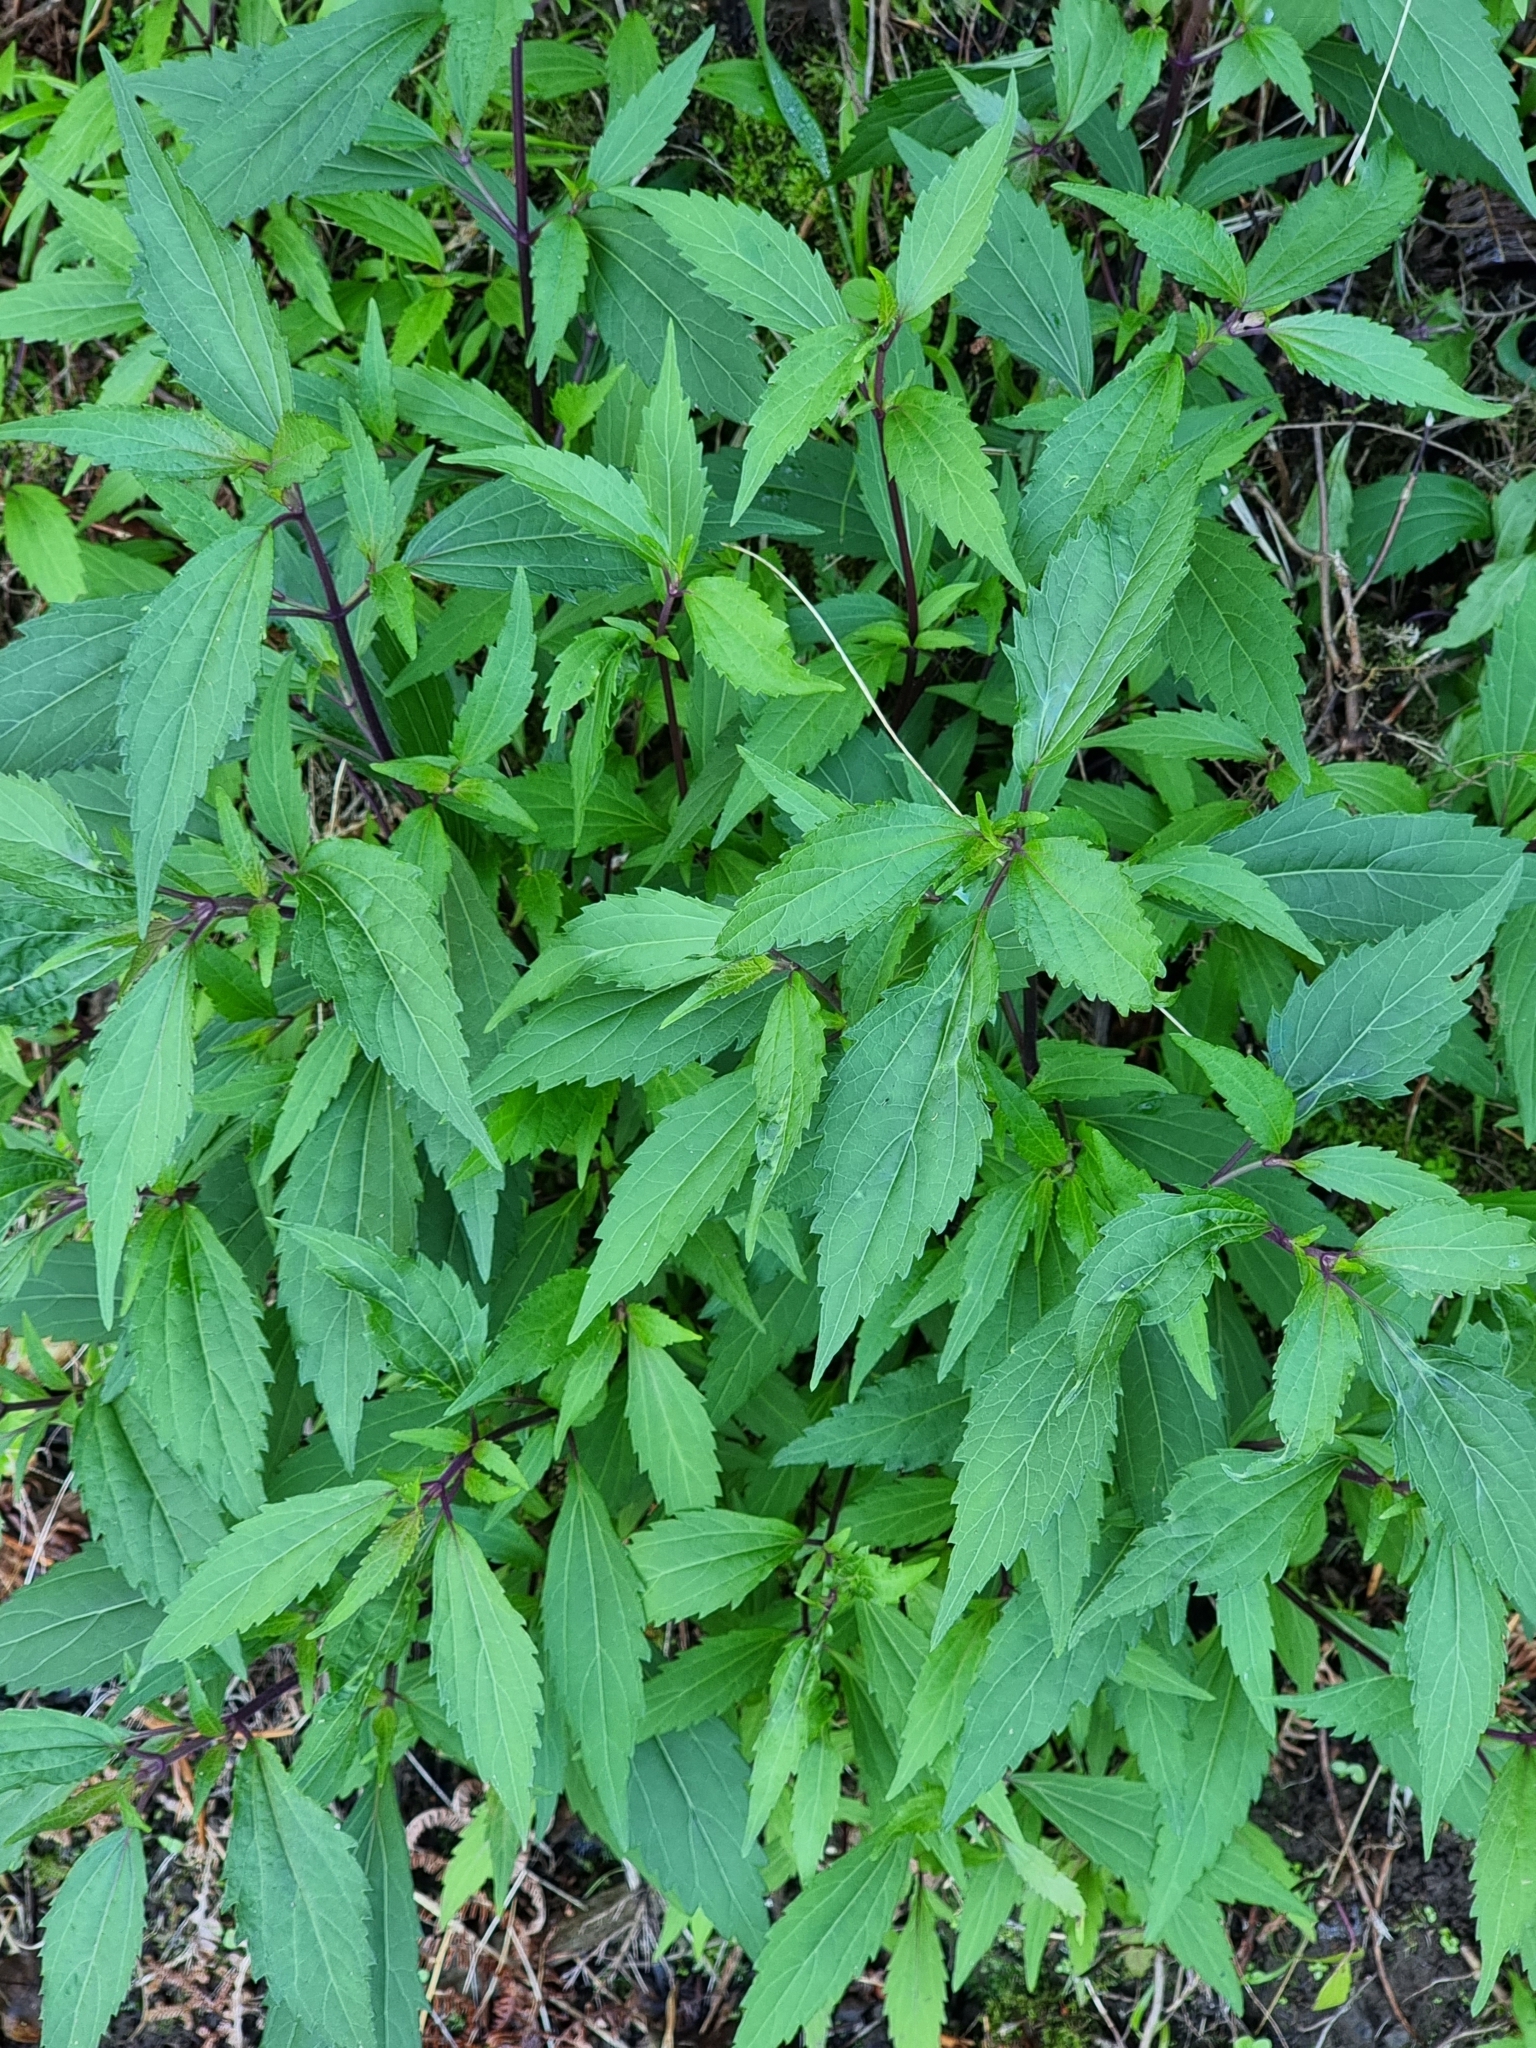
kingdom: Plantae
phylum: Tracheophyta
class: Magnoliopsida
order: Asterales
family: Asteraceae
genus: Ageratina
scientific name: Ageratina riparia
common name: Creeping croftonweed
